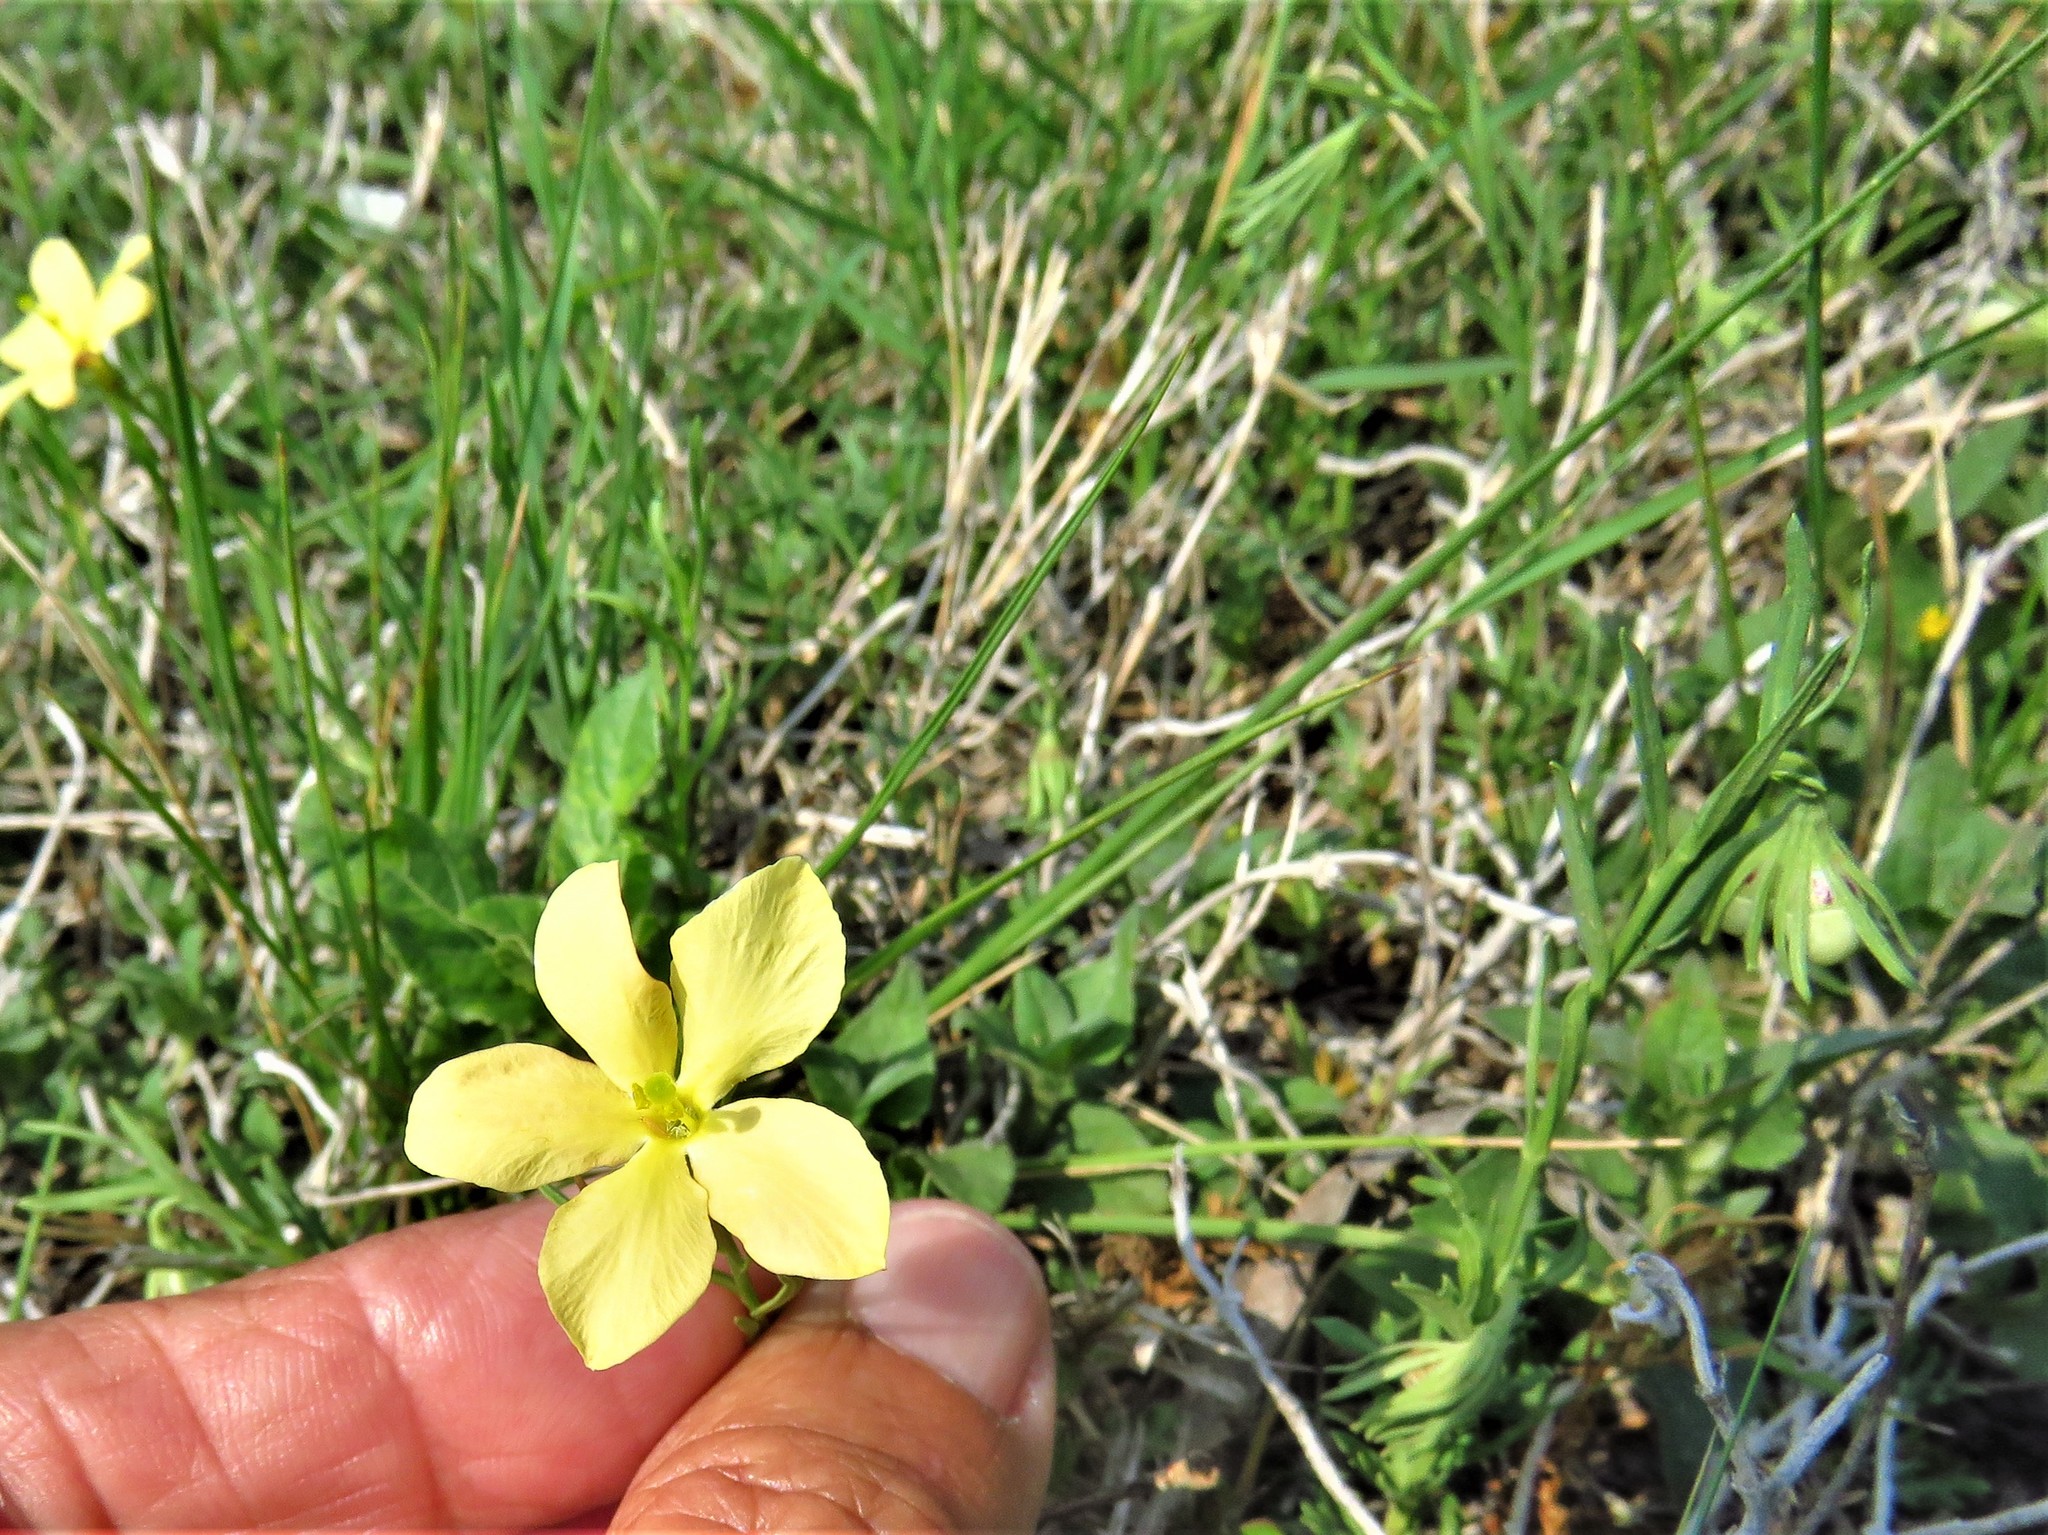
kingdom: Plantae
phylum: Tracheophyta
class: Magnoliopsida
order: Lamiales
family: Oleaceae
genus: Menodora
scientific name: Menodora heterophylla
